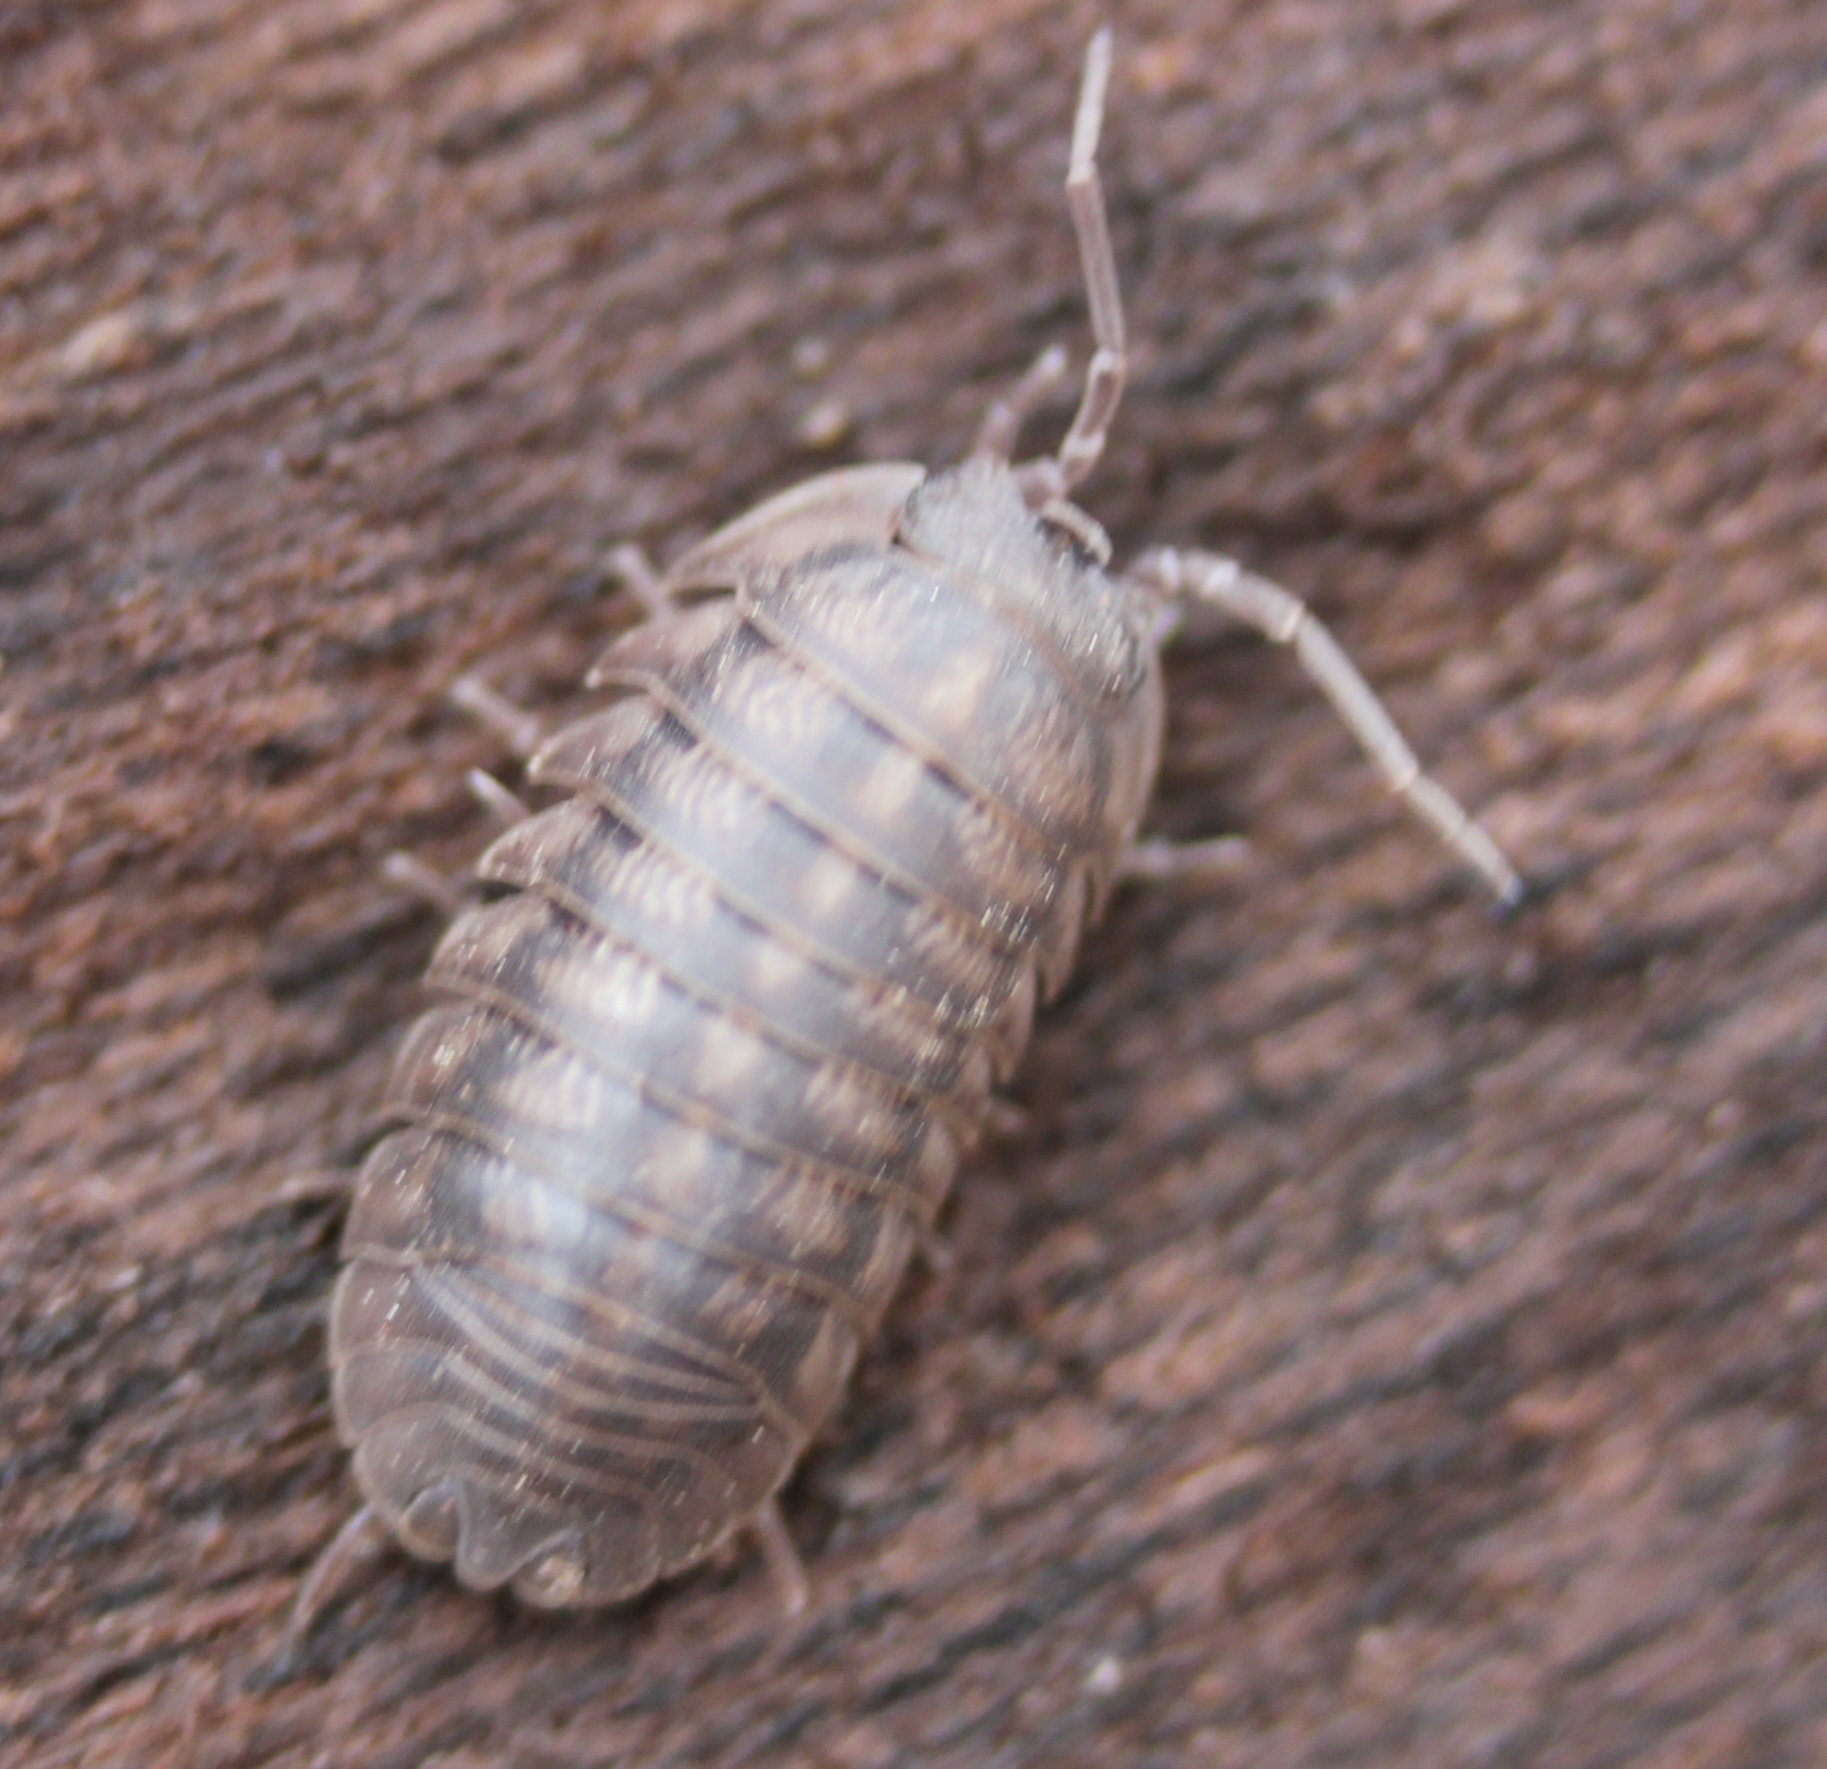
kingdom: Animalia
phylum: Arthropoda
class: Malacostraca
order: Isopoda
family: Armadillidiidae
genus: Armadillidium
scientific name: Armadillidium nasatum
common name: Isopod
